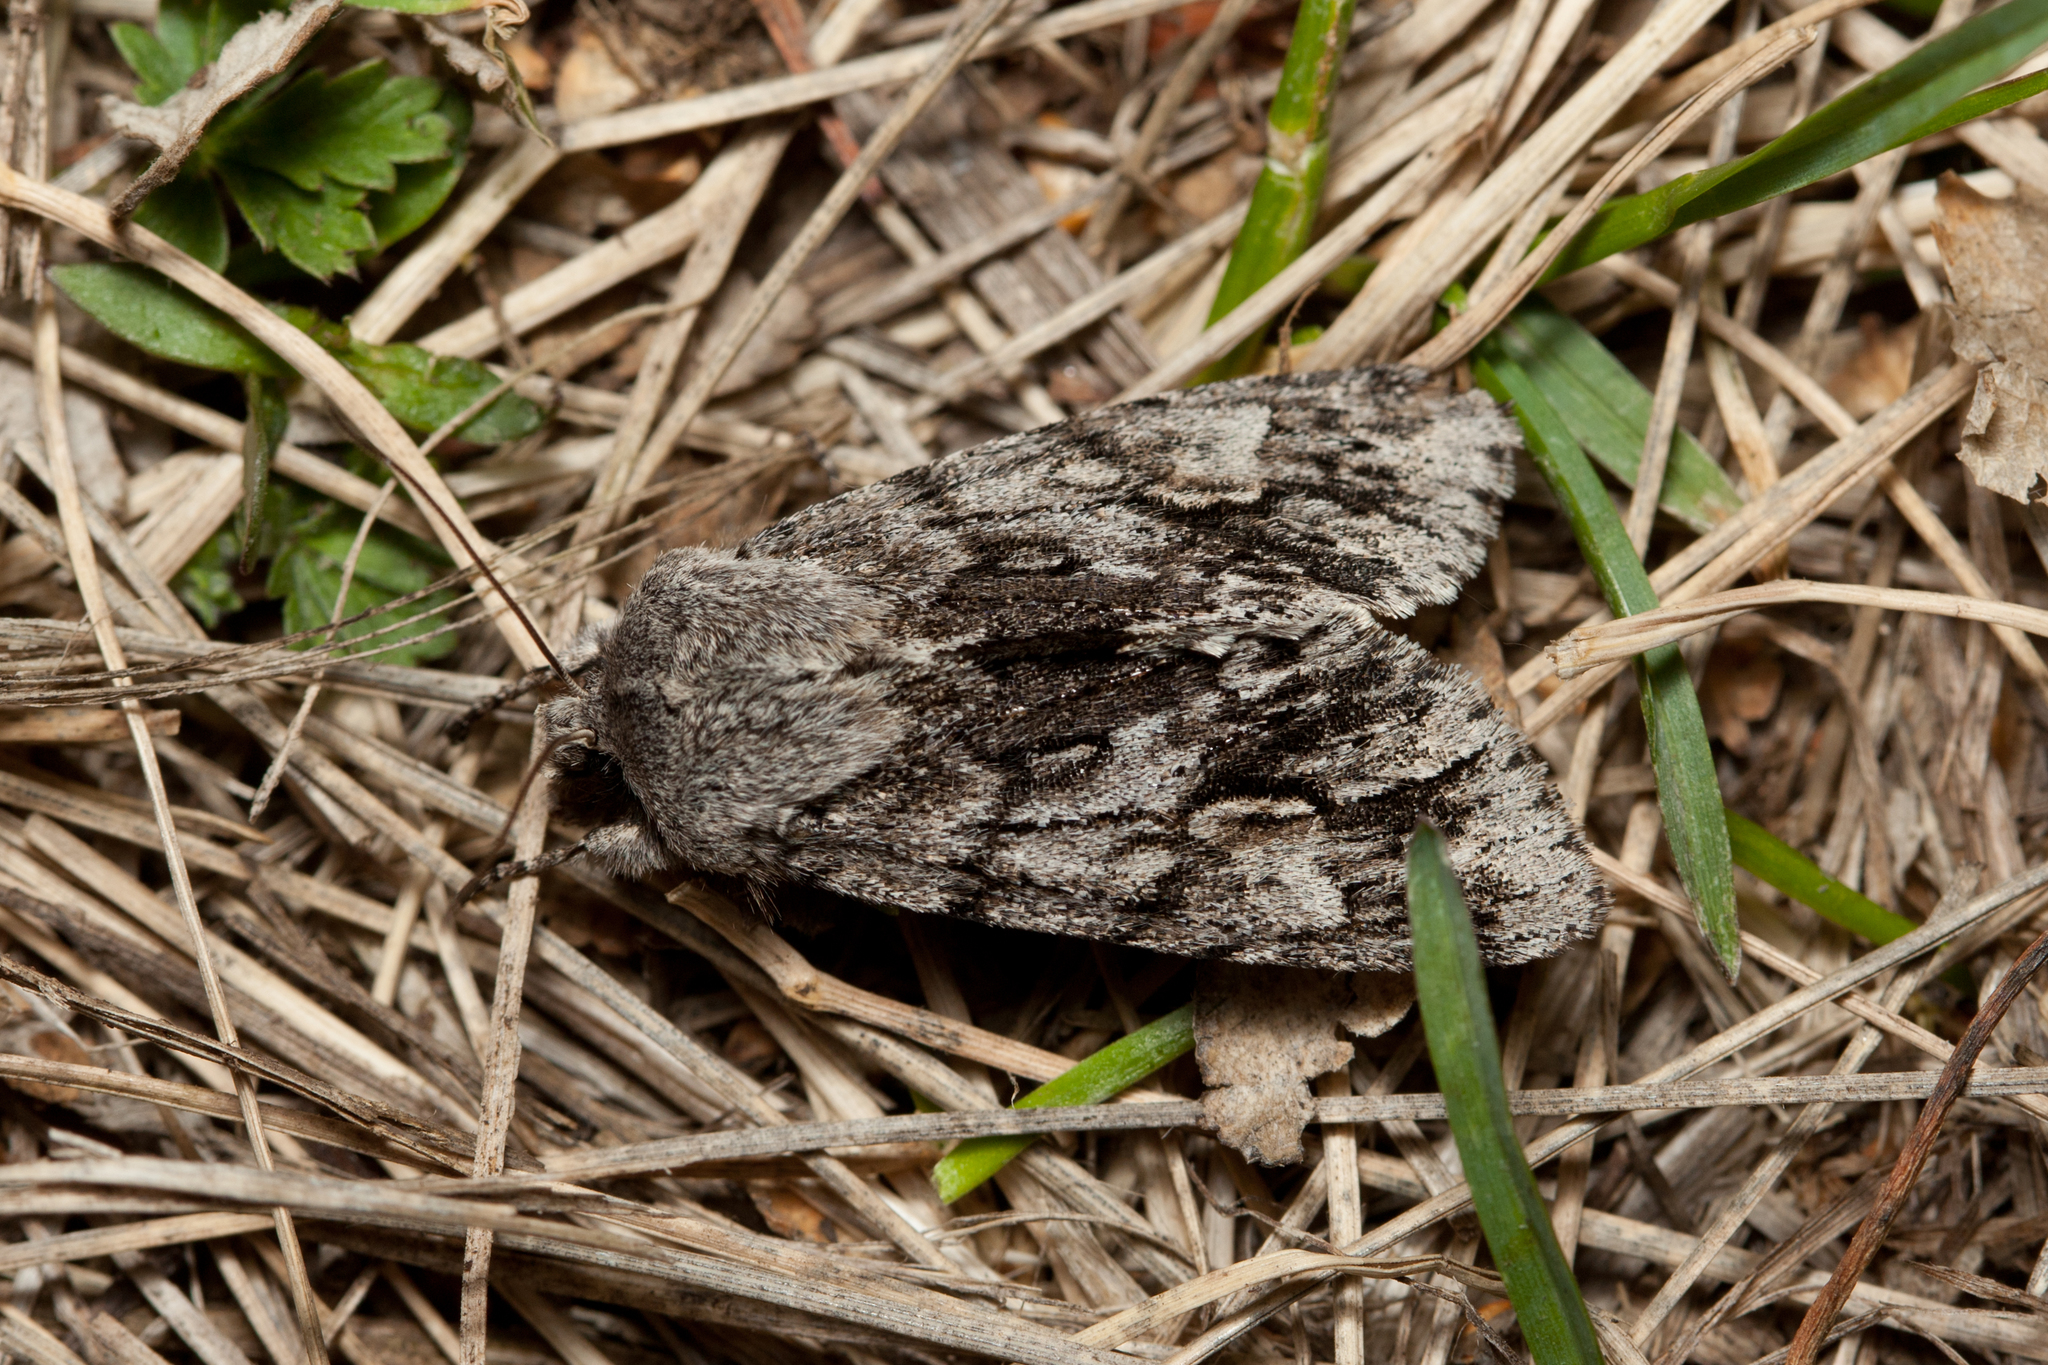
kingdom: Animalia
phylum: Arthropoda
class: Insecta
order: Lepidoptera
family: Noctuidae
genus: Brachionycha
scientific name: Brachionycha nubeculosa
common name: Rannoch sprawler
